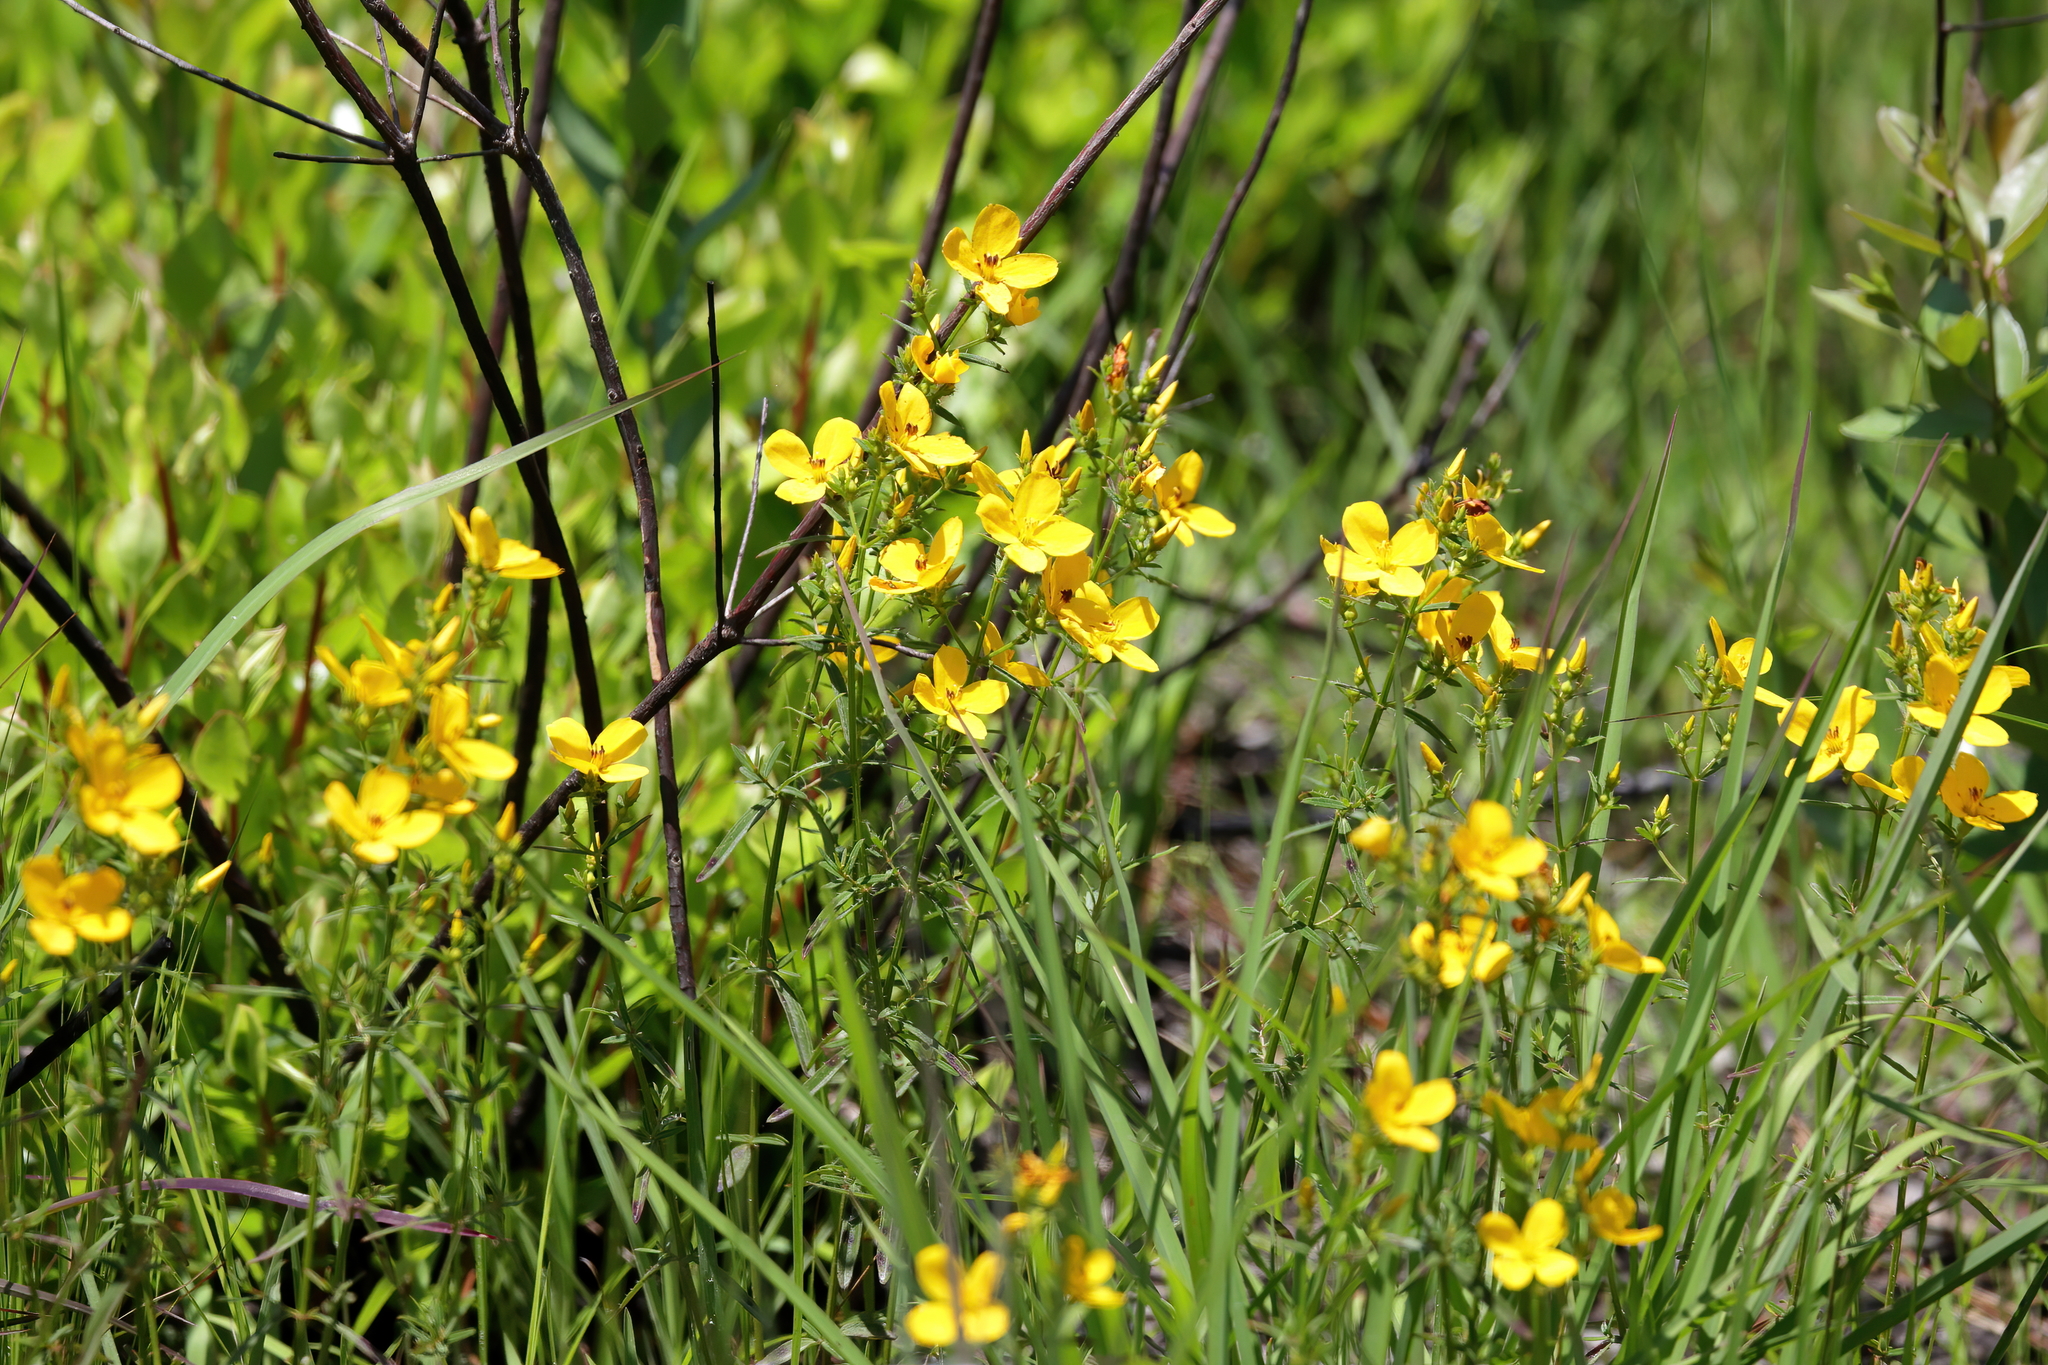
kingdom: Plantae
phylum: Tracheophyta
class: Magnoliopsida
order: Myrtales
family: Melastomataceae
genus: Rhexia
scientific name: Rhexia lutea
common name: Golden meadow-beauty
